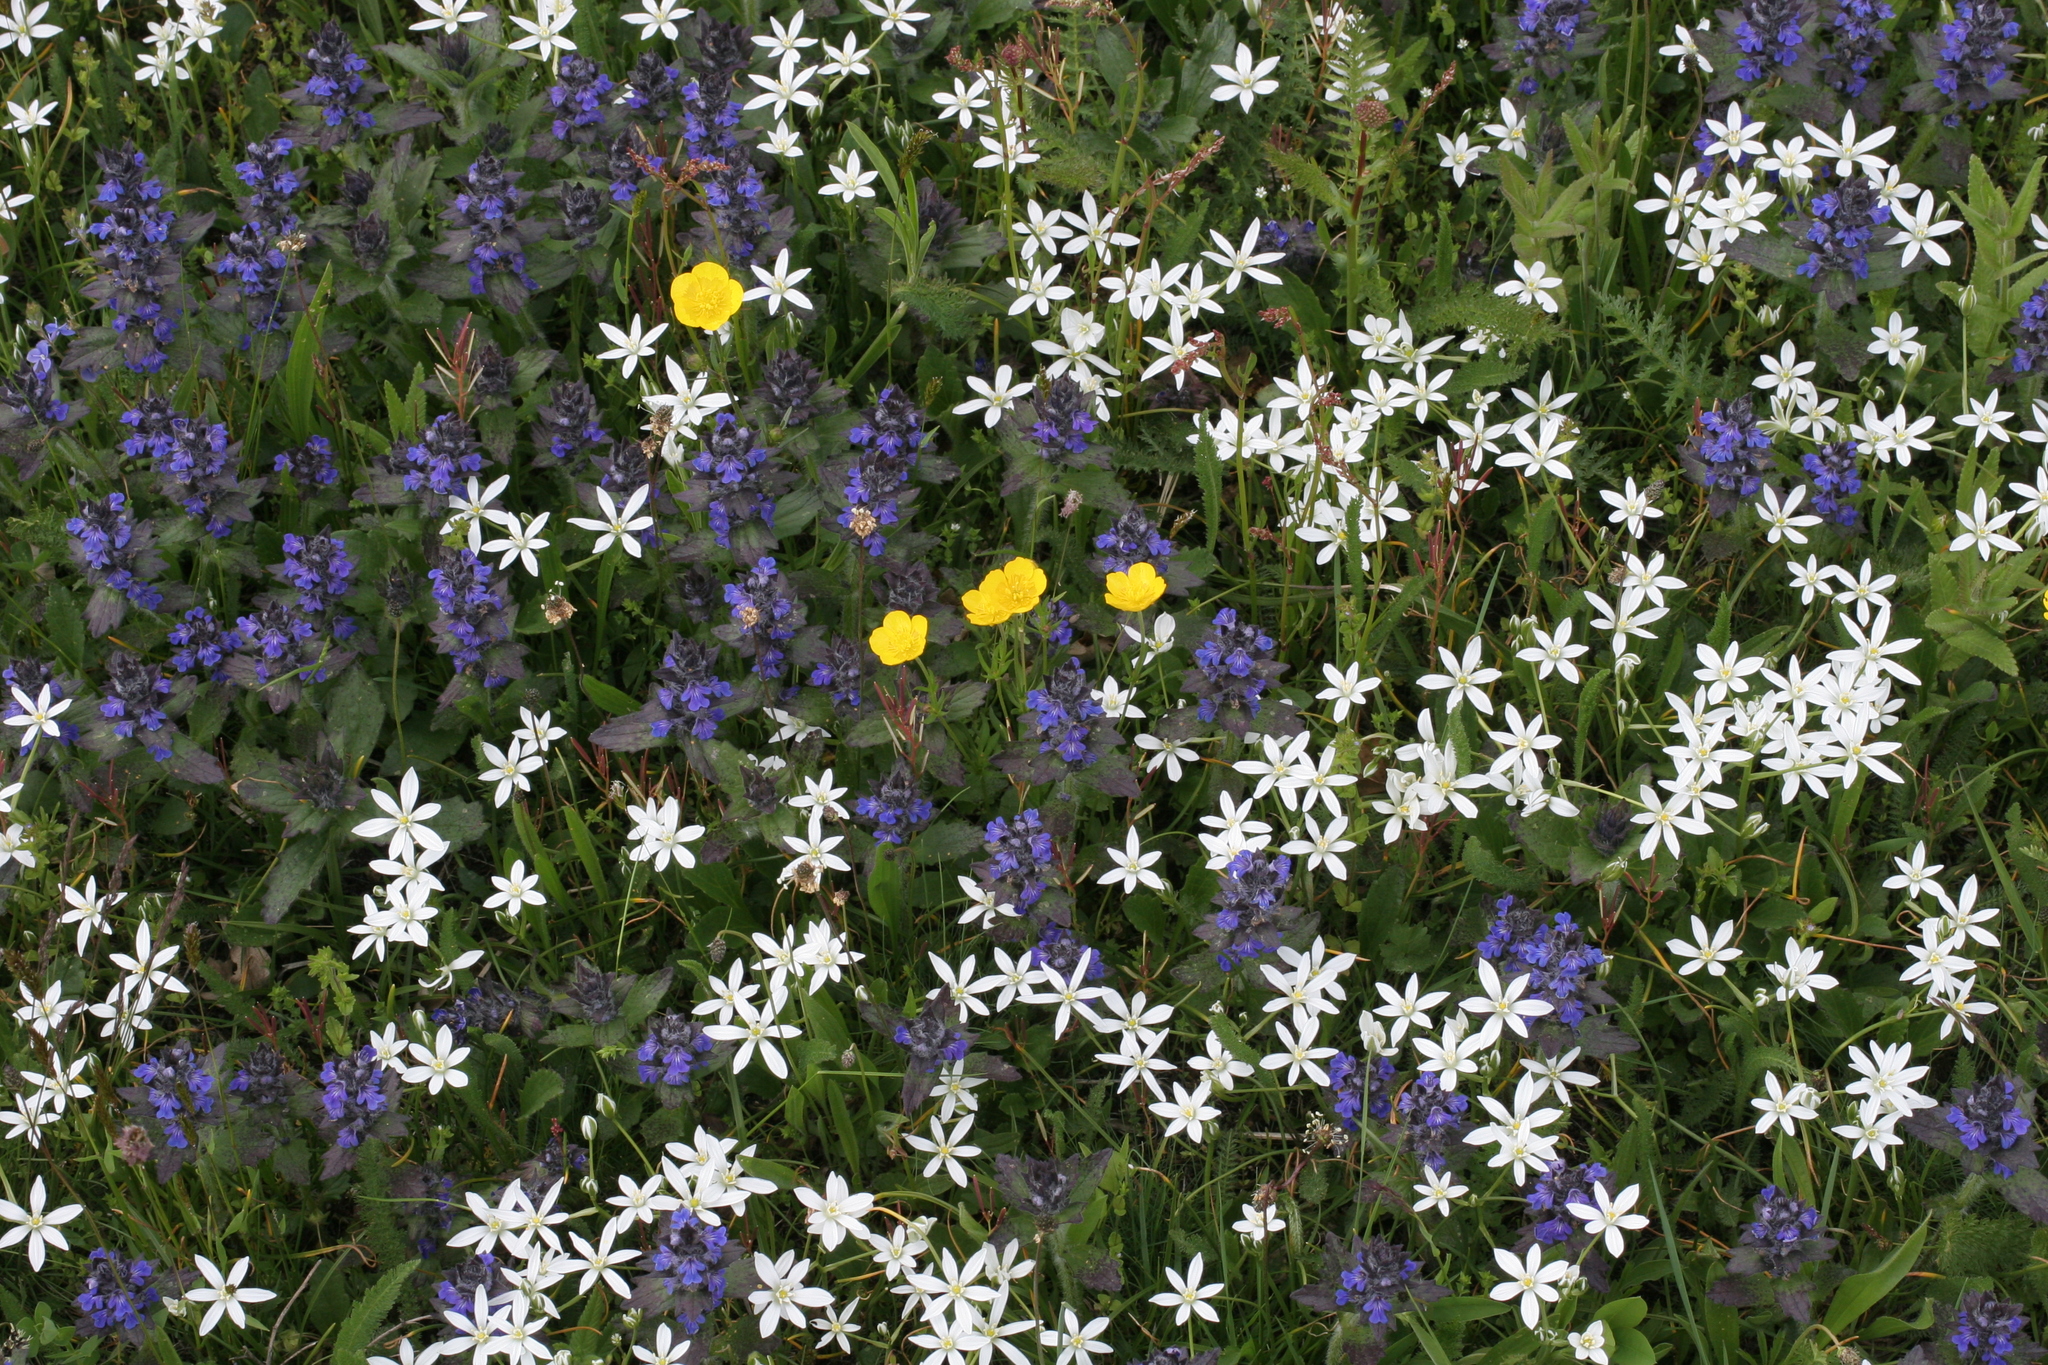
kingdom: Plantae
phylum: Tracheophyta
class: Magnoliopsida
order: Caryophyllales
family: Caryophyllaceae
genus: Rabelera
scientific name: Rabelera holostea
